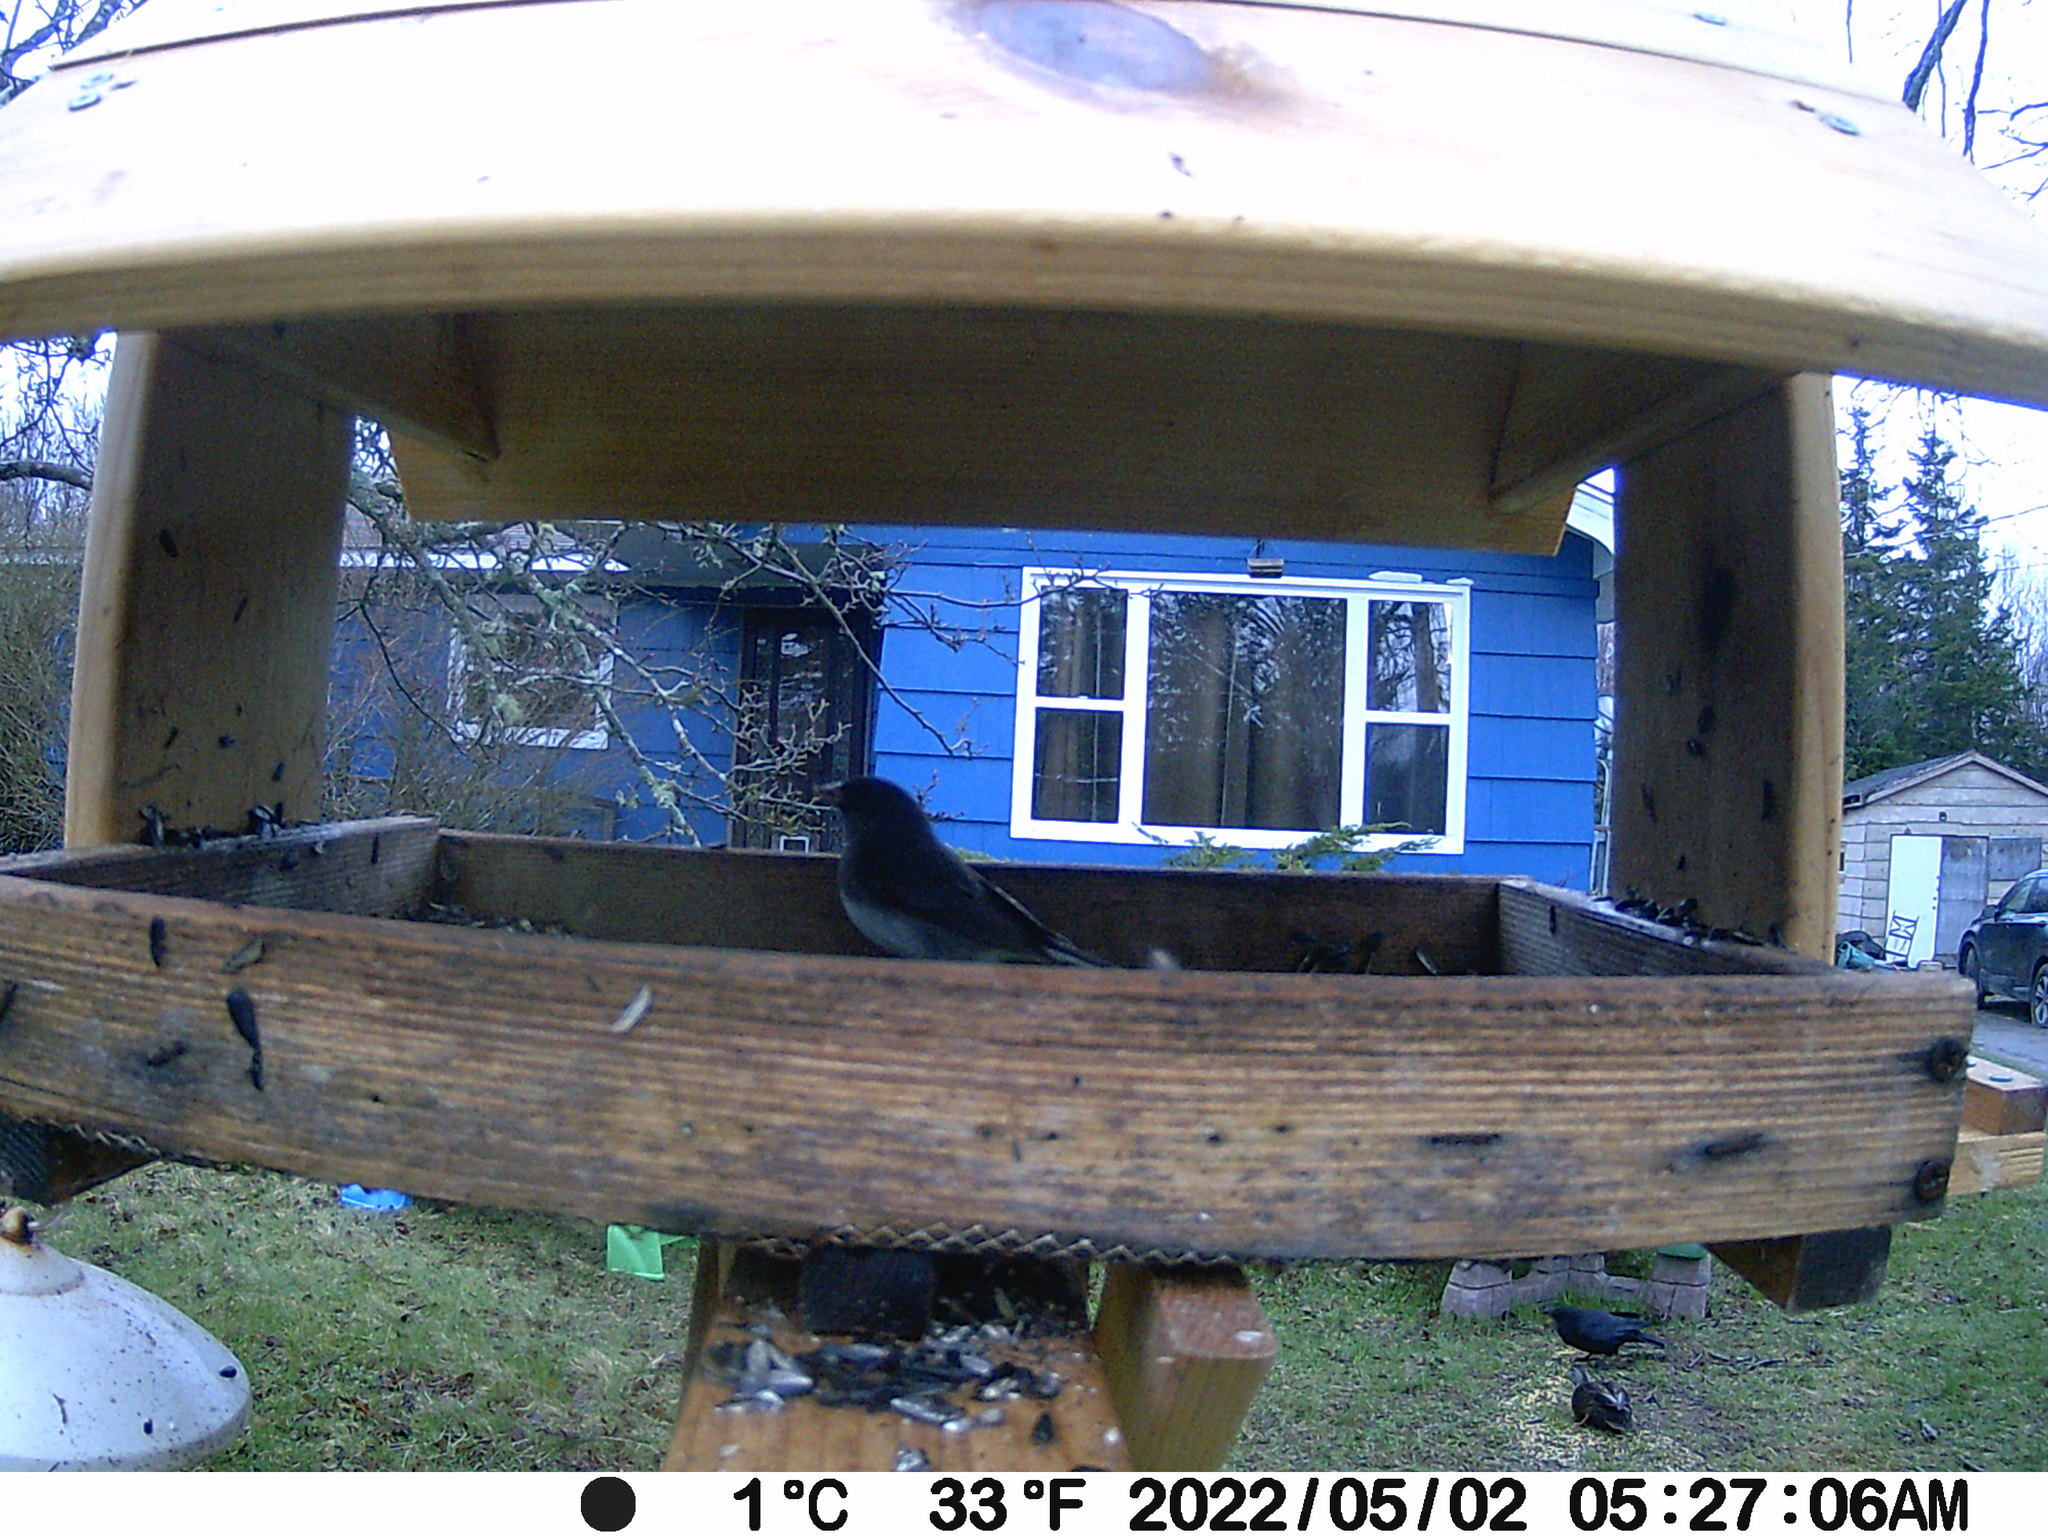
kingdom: Animalia
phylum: Chordata
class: Aves
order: Passeriformes
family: Passerellidae
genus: Junco
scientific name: Junco hyemalis
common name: Dark-eyed junco
